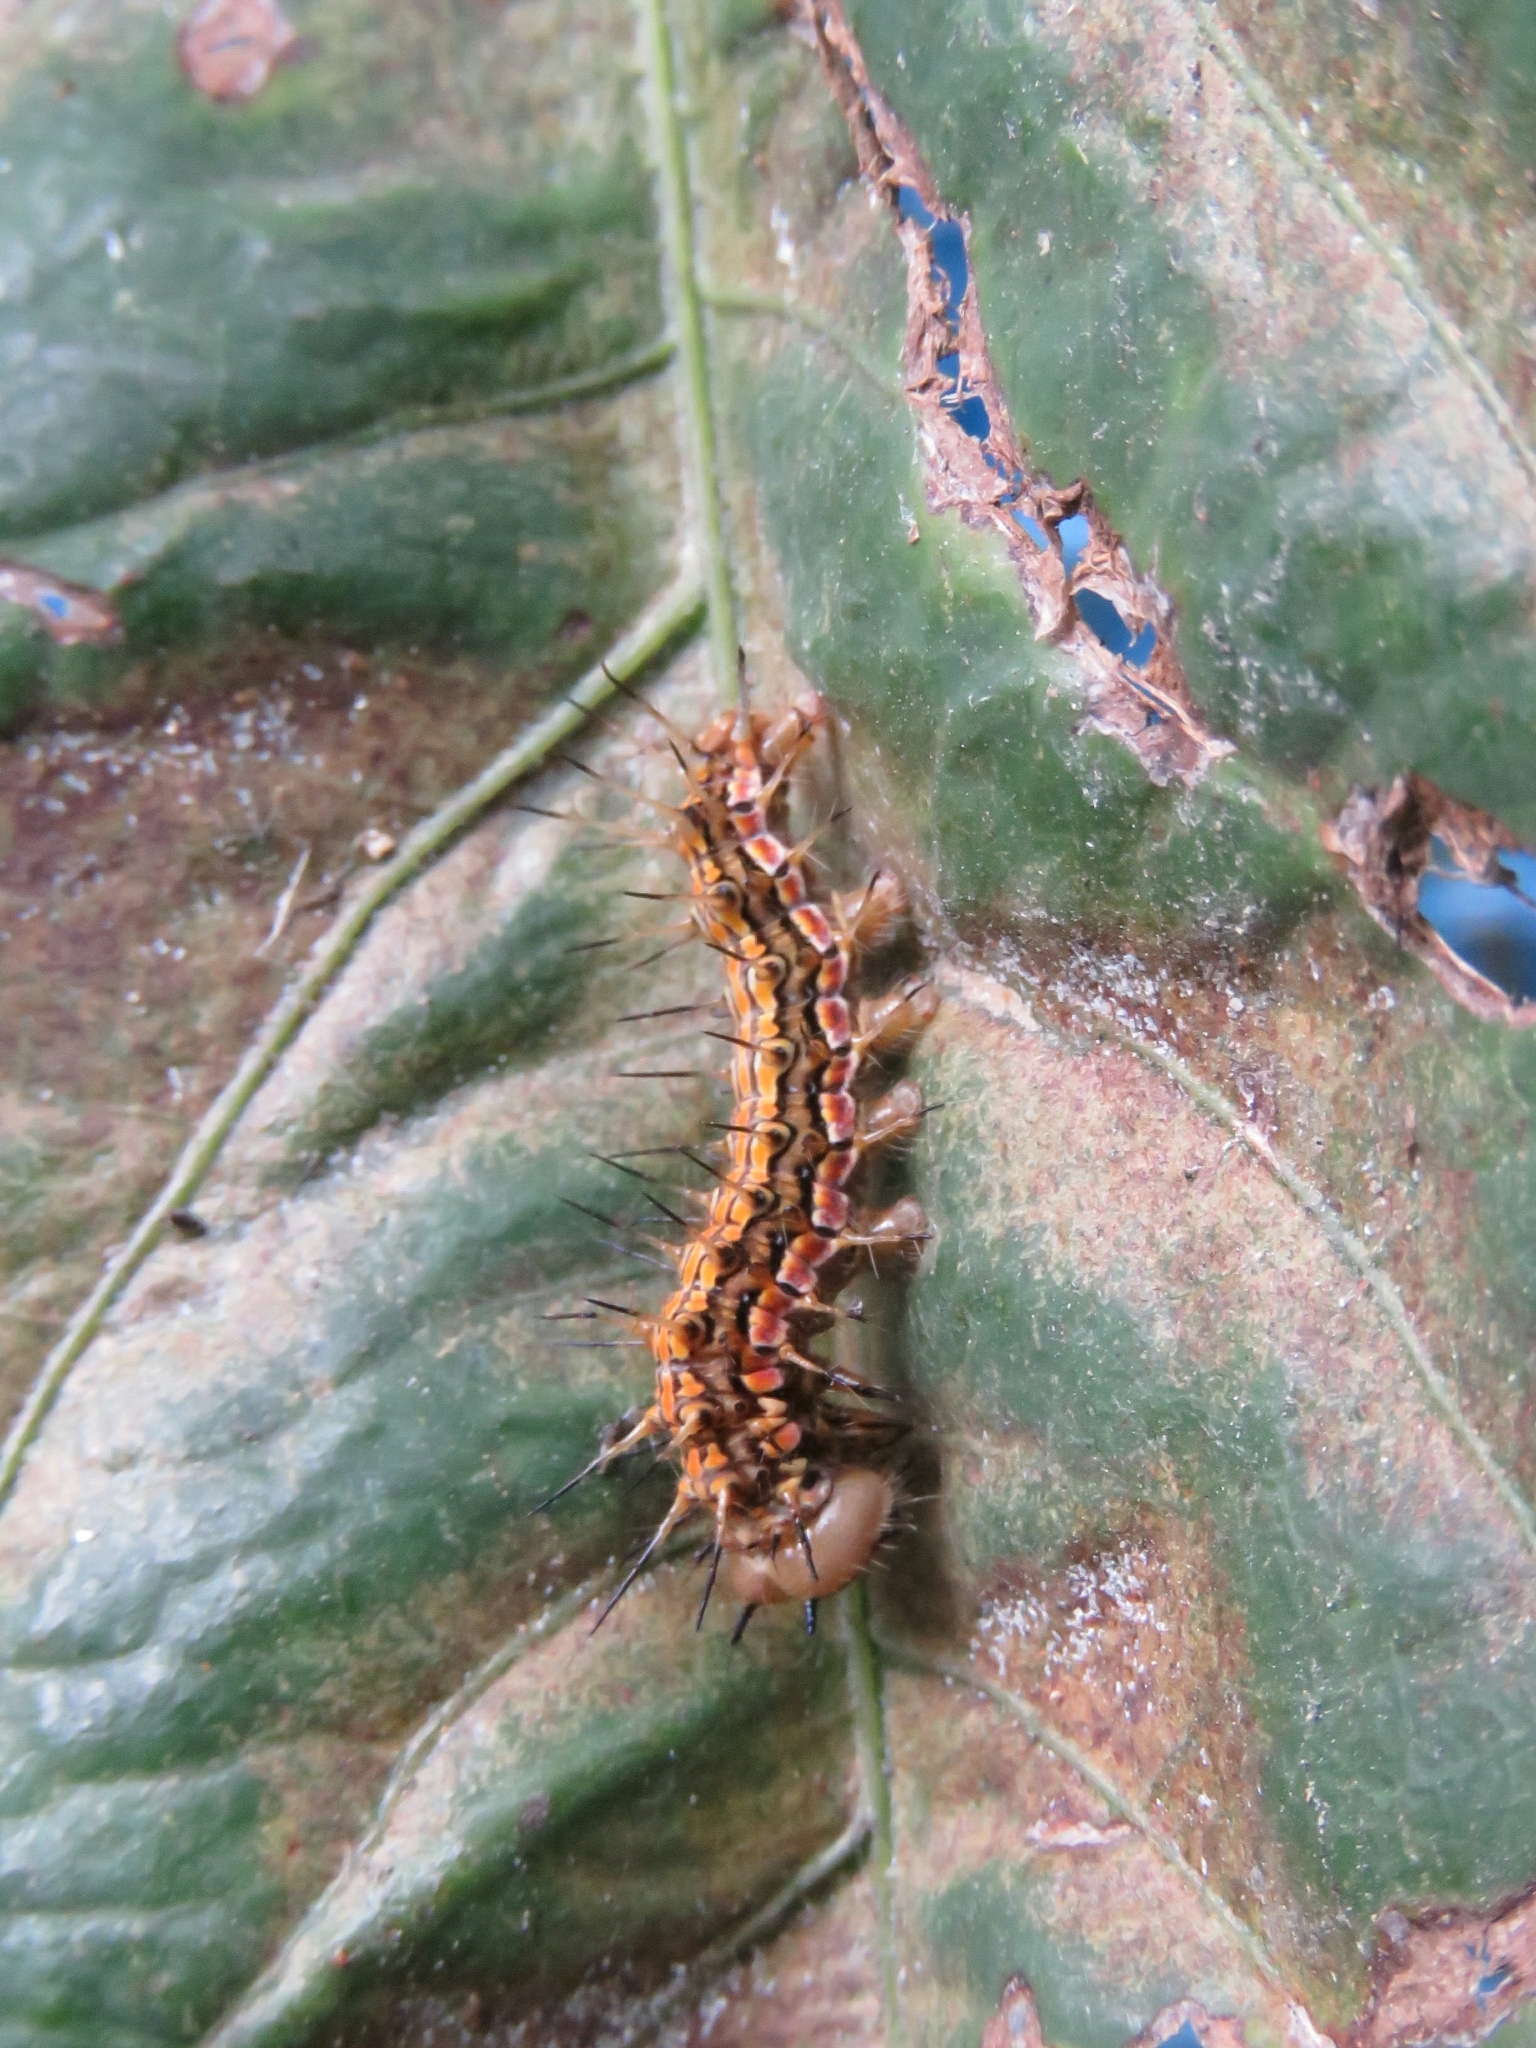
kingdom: Animalia
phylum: Arthropoda
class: Insecta
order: Lepidoptera
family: Nymphalidae
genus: Dione
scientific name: Dione glycera
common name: Andean silverspot
